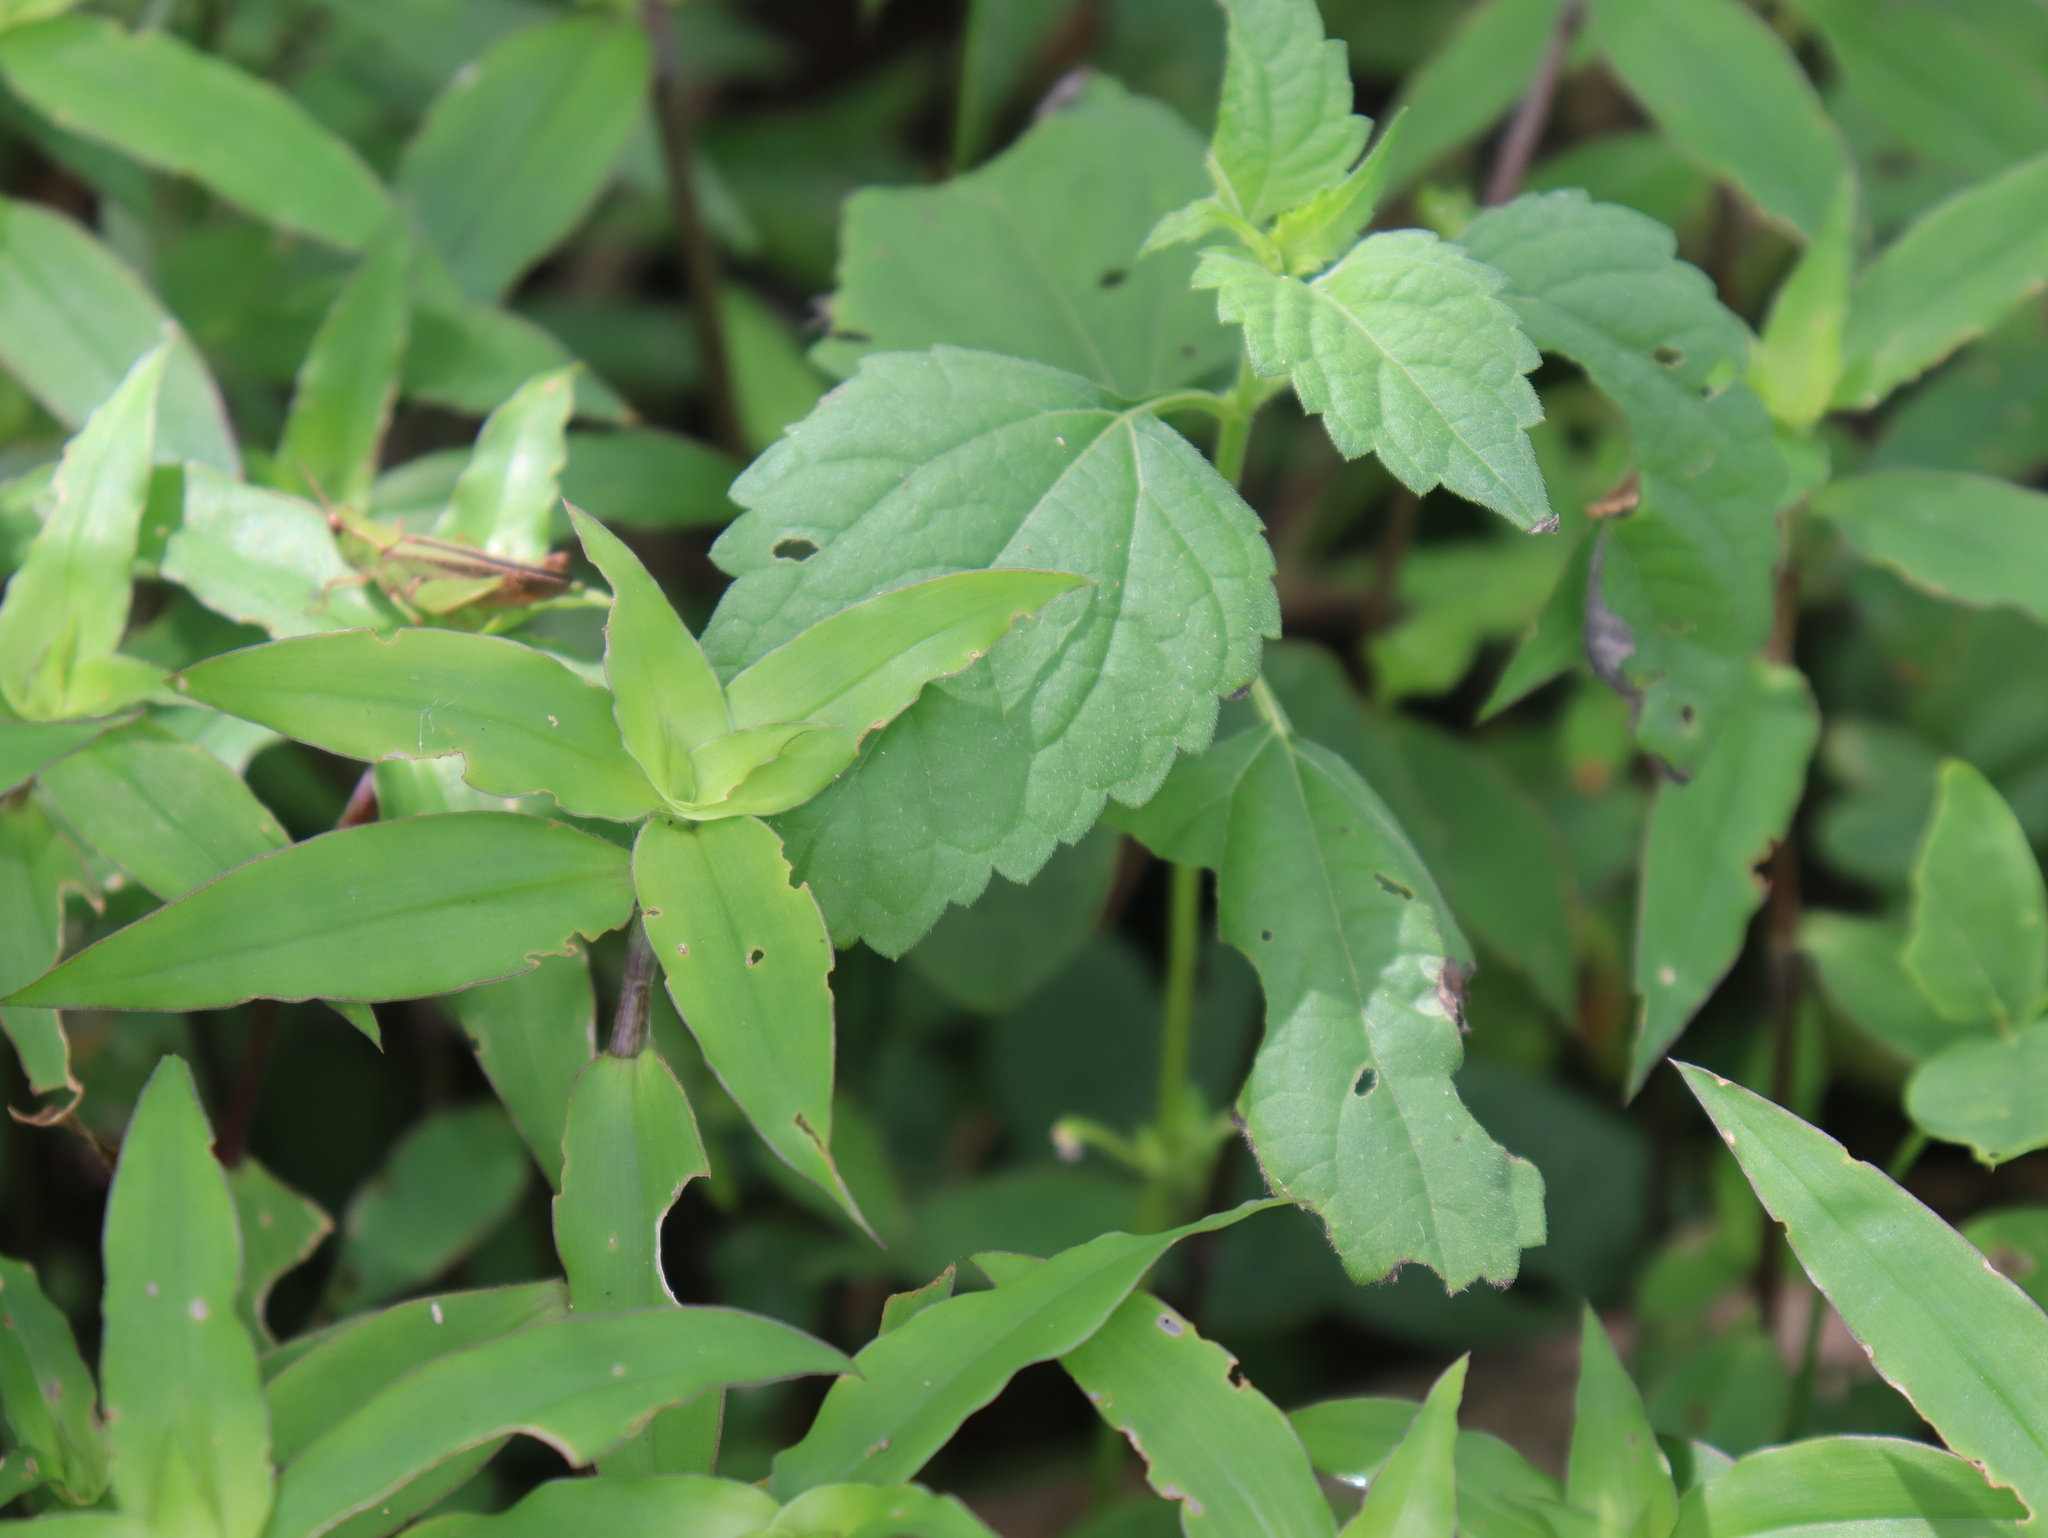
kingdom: Animalia
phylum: Arthropoda
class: Insecta
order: Orthoptera
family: Acrididae
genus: Orphulella
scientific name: Orphulella punctata
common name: Slant-faced grasshopper
